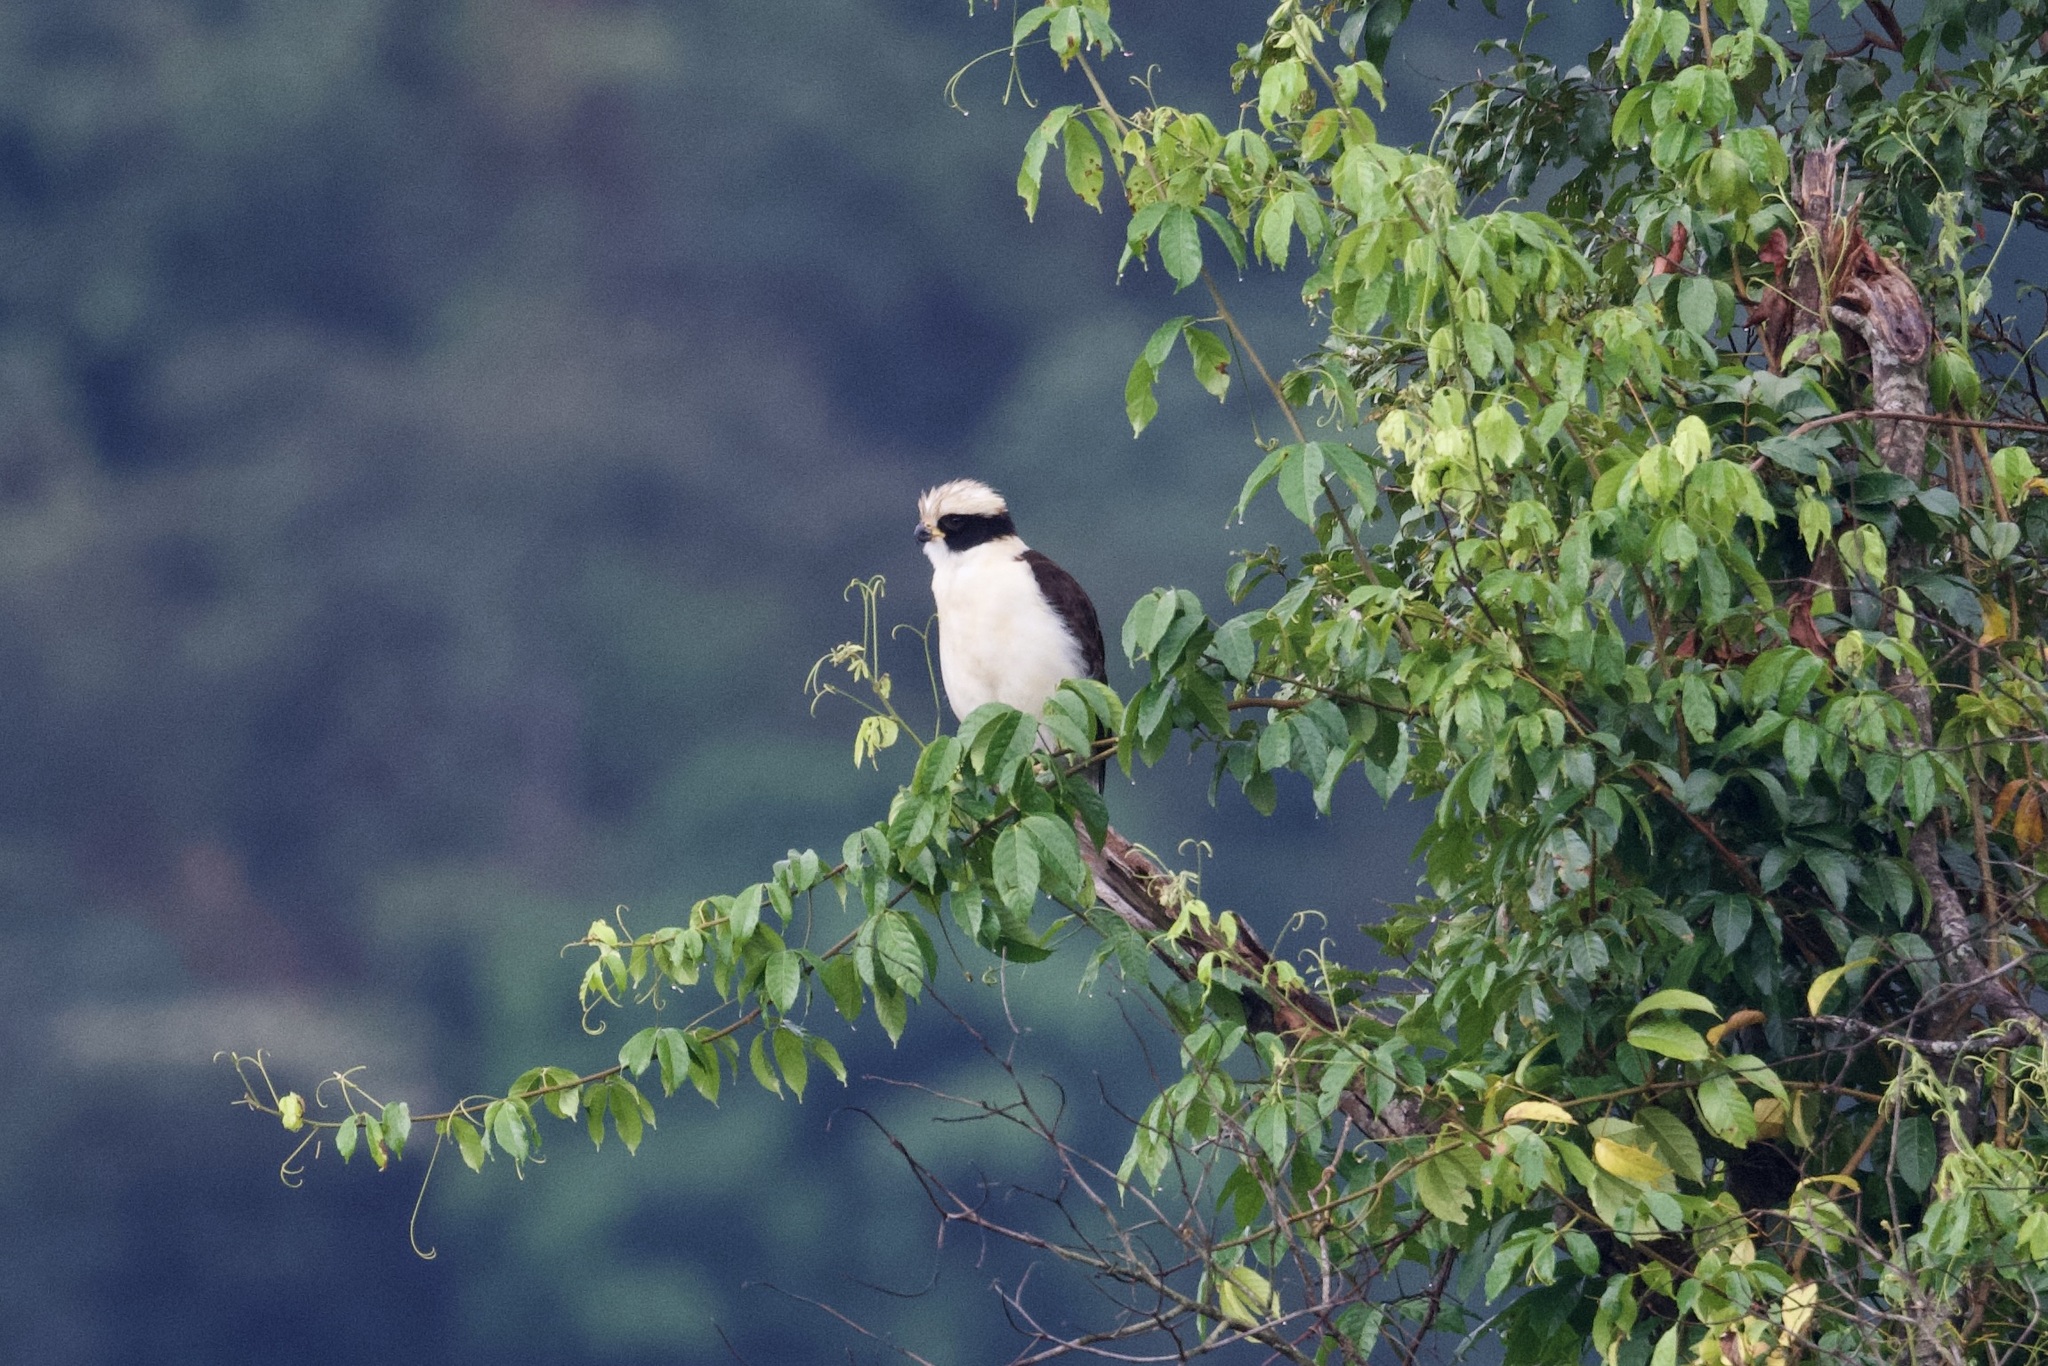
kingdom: Animalia
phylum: Chordata
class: Aves
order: Falconiformes
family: Falconidae
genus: Herpetotheres
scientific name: Herpetotheres cachinnans
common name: Laughing falcon
